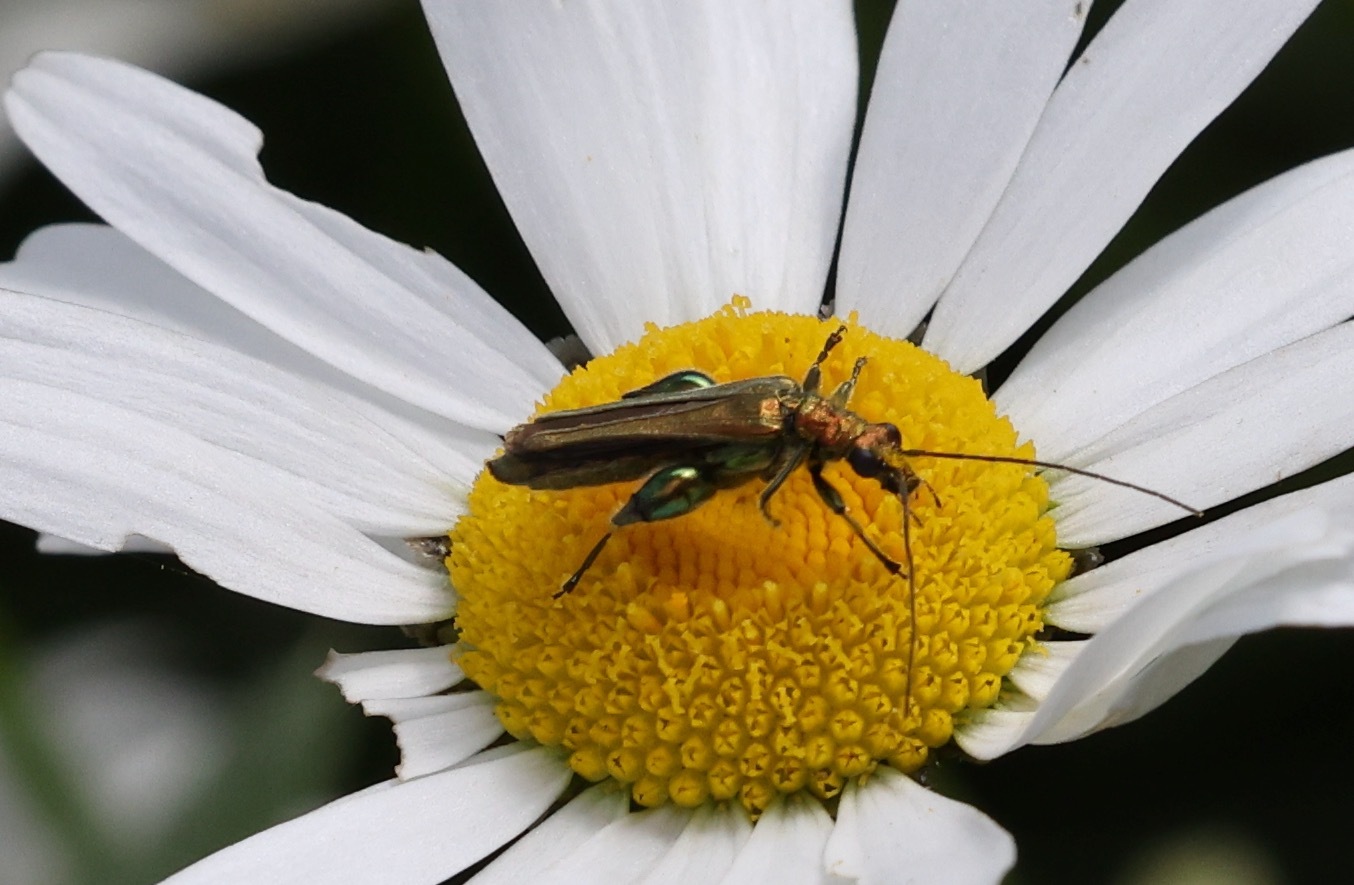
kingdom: Animalia
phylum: Arthropoda
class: Insecta
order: Coleoptera
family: Oedemeridae
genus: Oedemera
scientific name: Oedemera nobilis
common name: Swollen-thighed beetle
